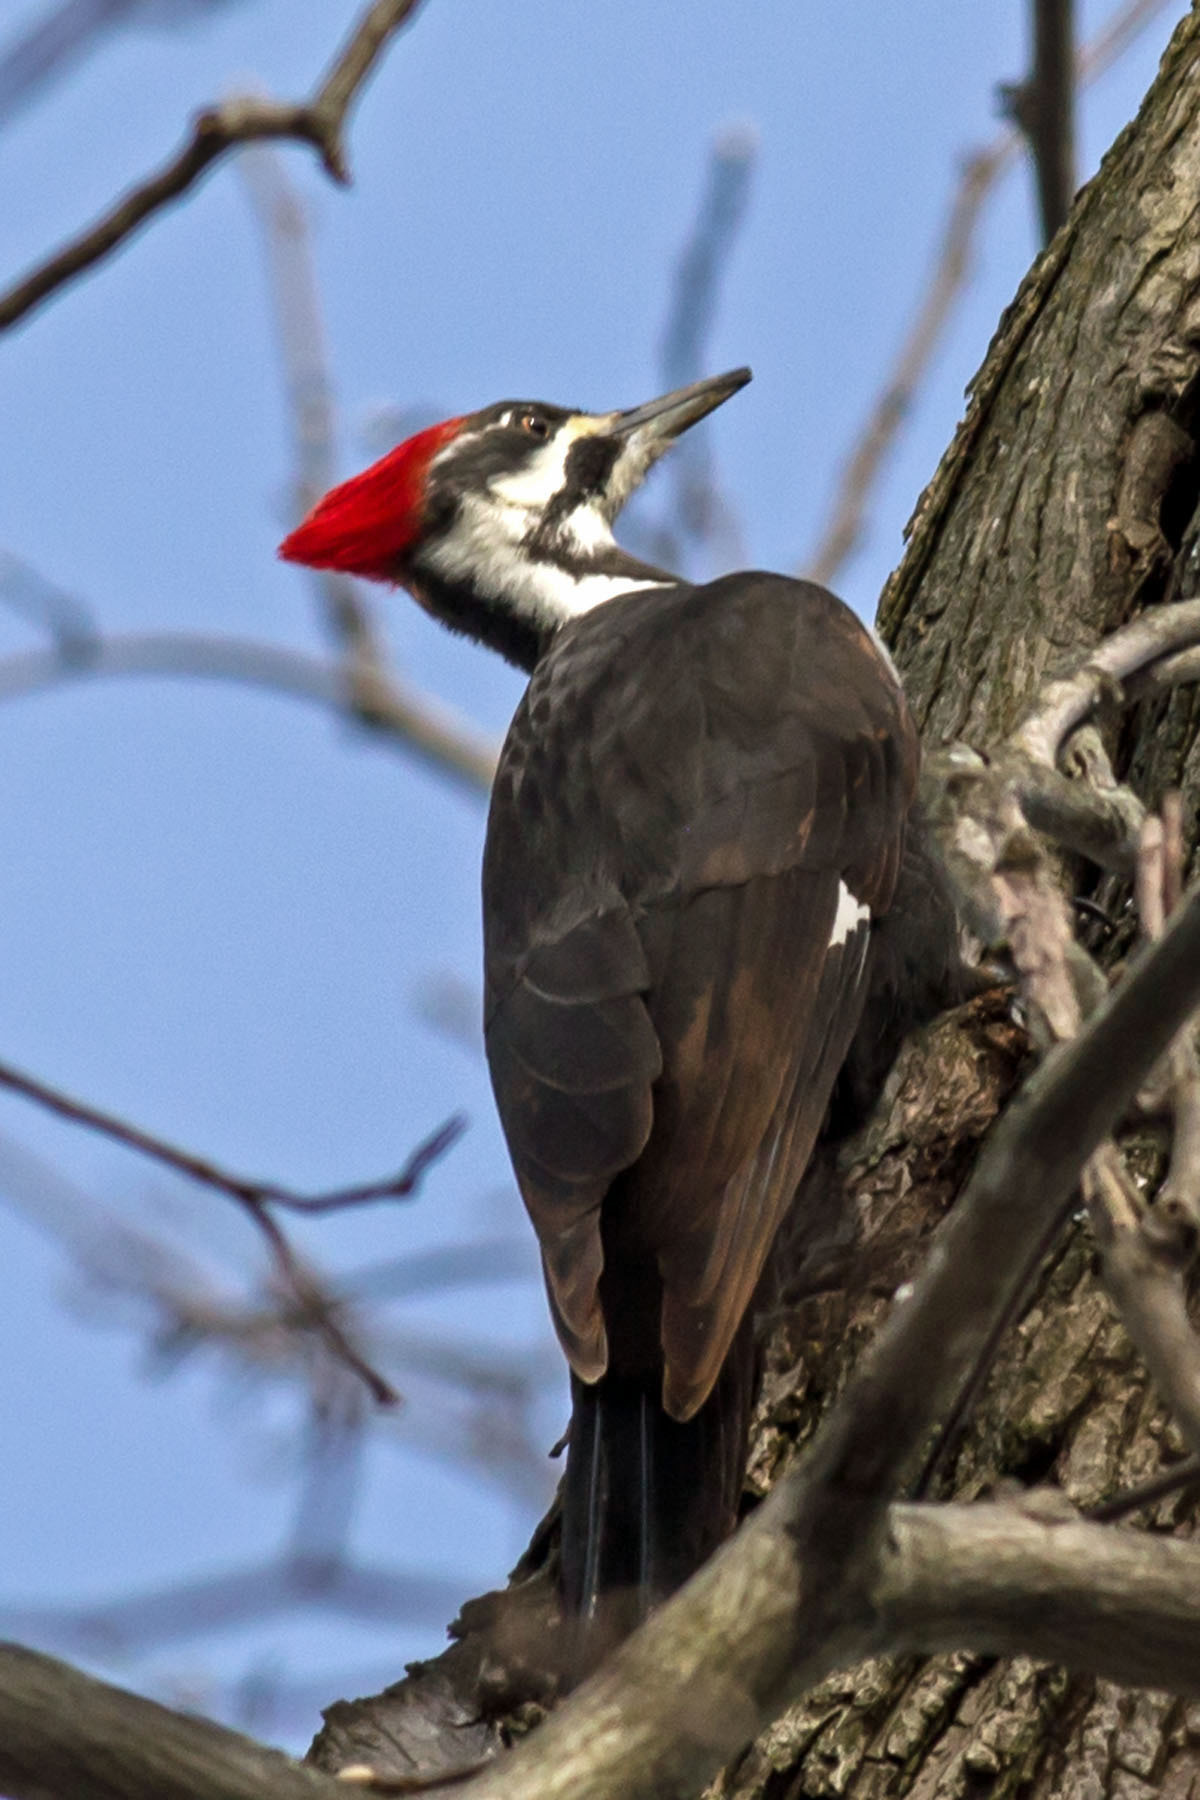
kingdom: Animalia
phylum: Chordata
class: Aves
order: Piciformes
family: Picidae
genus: Dryocopus
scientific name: Dryocopus pileatus
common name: Pileated woodpecker
